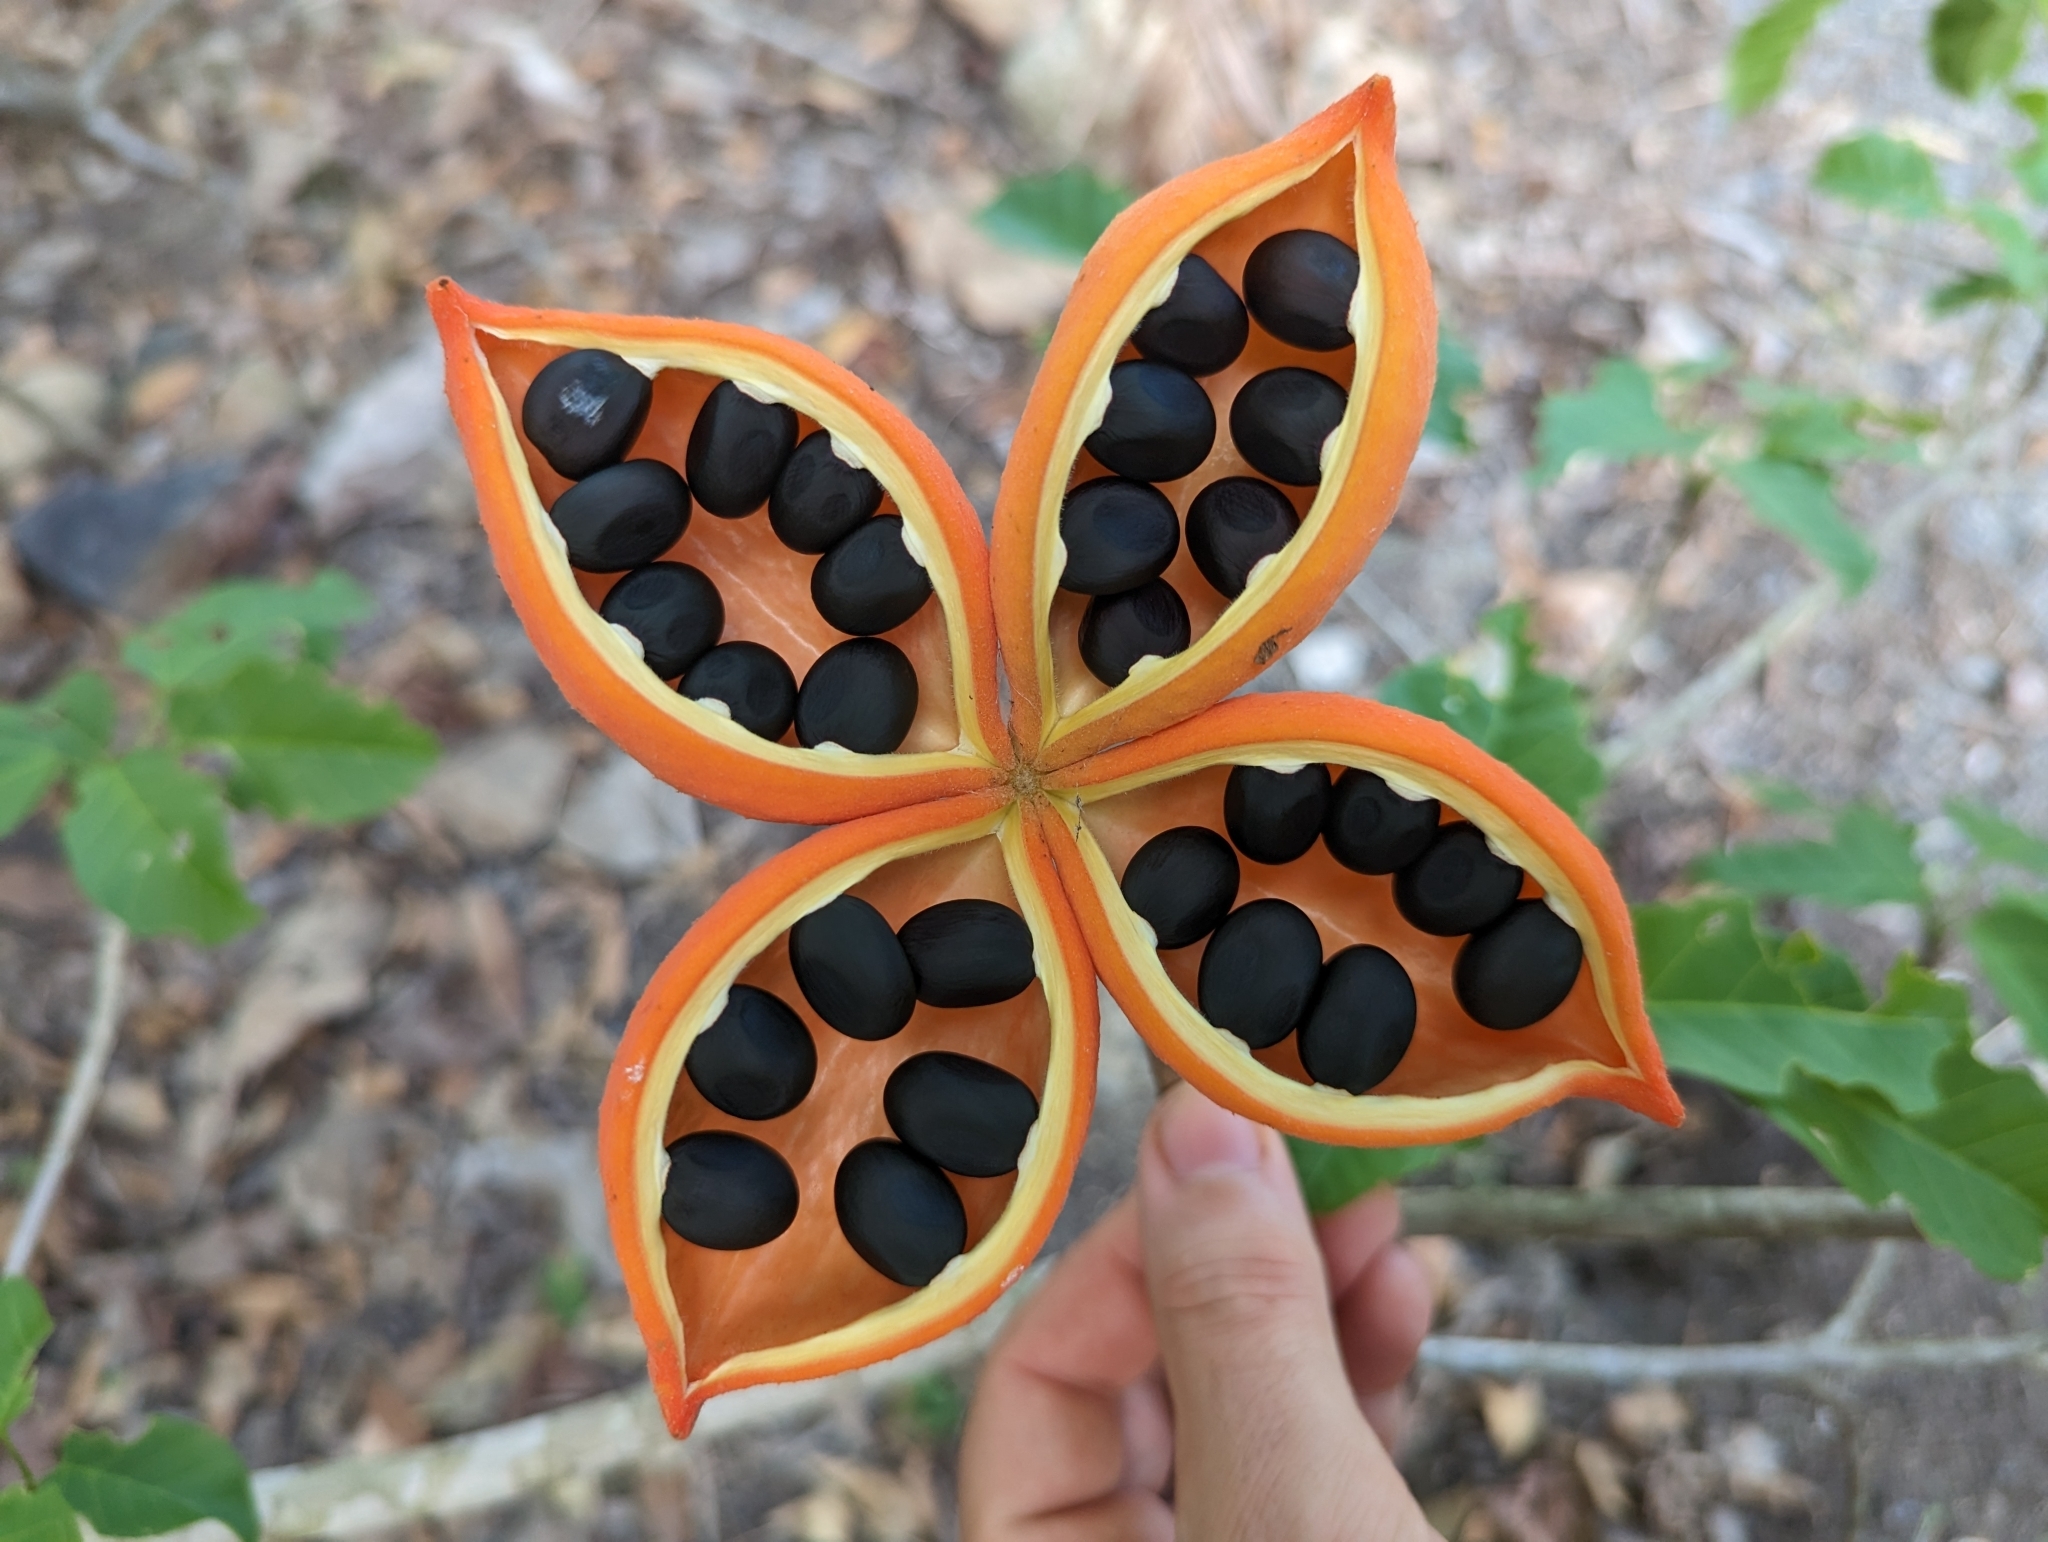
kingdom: Plantae
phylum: Tracheophyta
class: Magnoliopsida
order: Malvales
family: Malvaceae
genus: Sterculia
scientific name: Sterculia quadrifida
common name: Orange-fruit kurrajong
